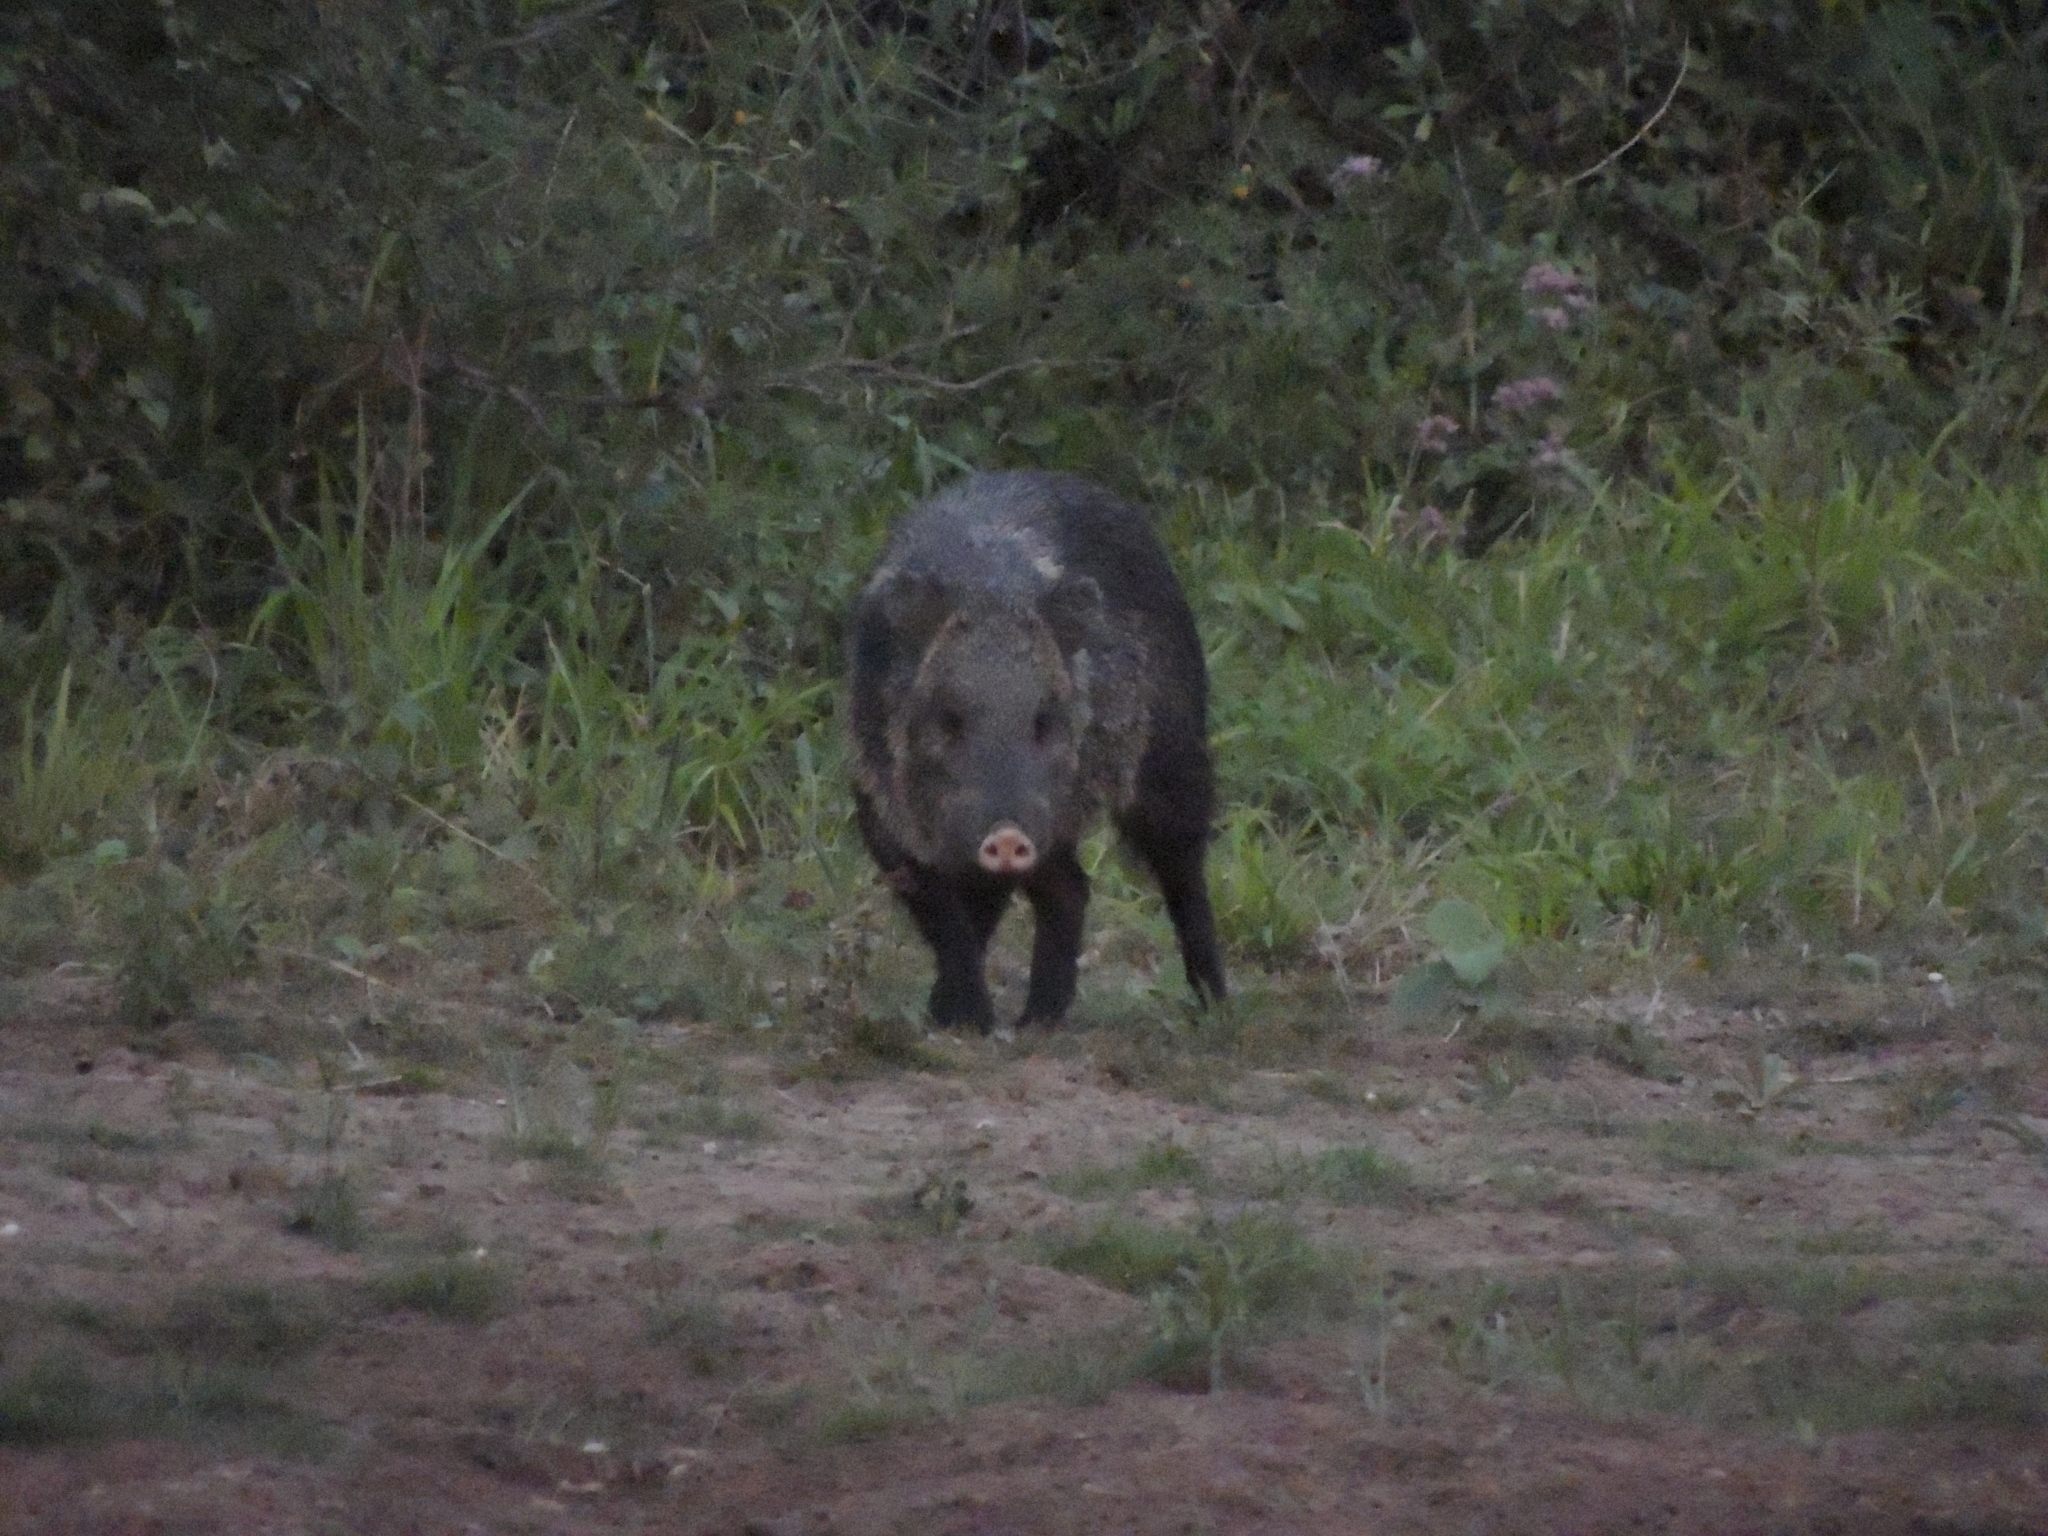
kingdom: Animalia
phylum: Chordata
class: Mammalia
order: Artiodactyla
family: Tayassuidae
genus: Pecari
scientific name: Pecari tajacu
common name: Collared peccary
